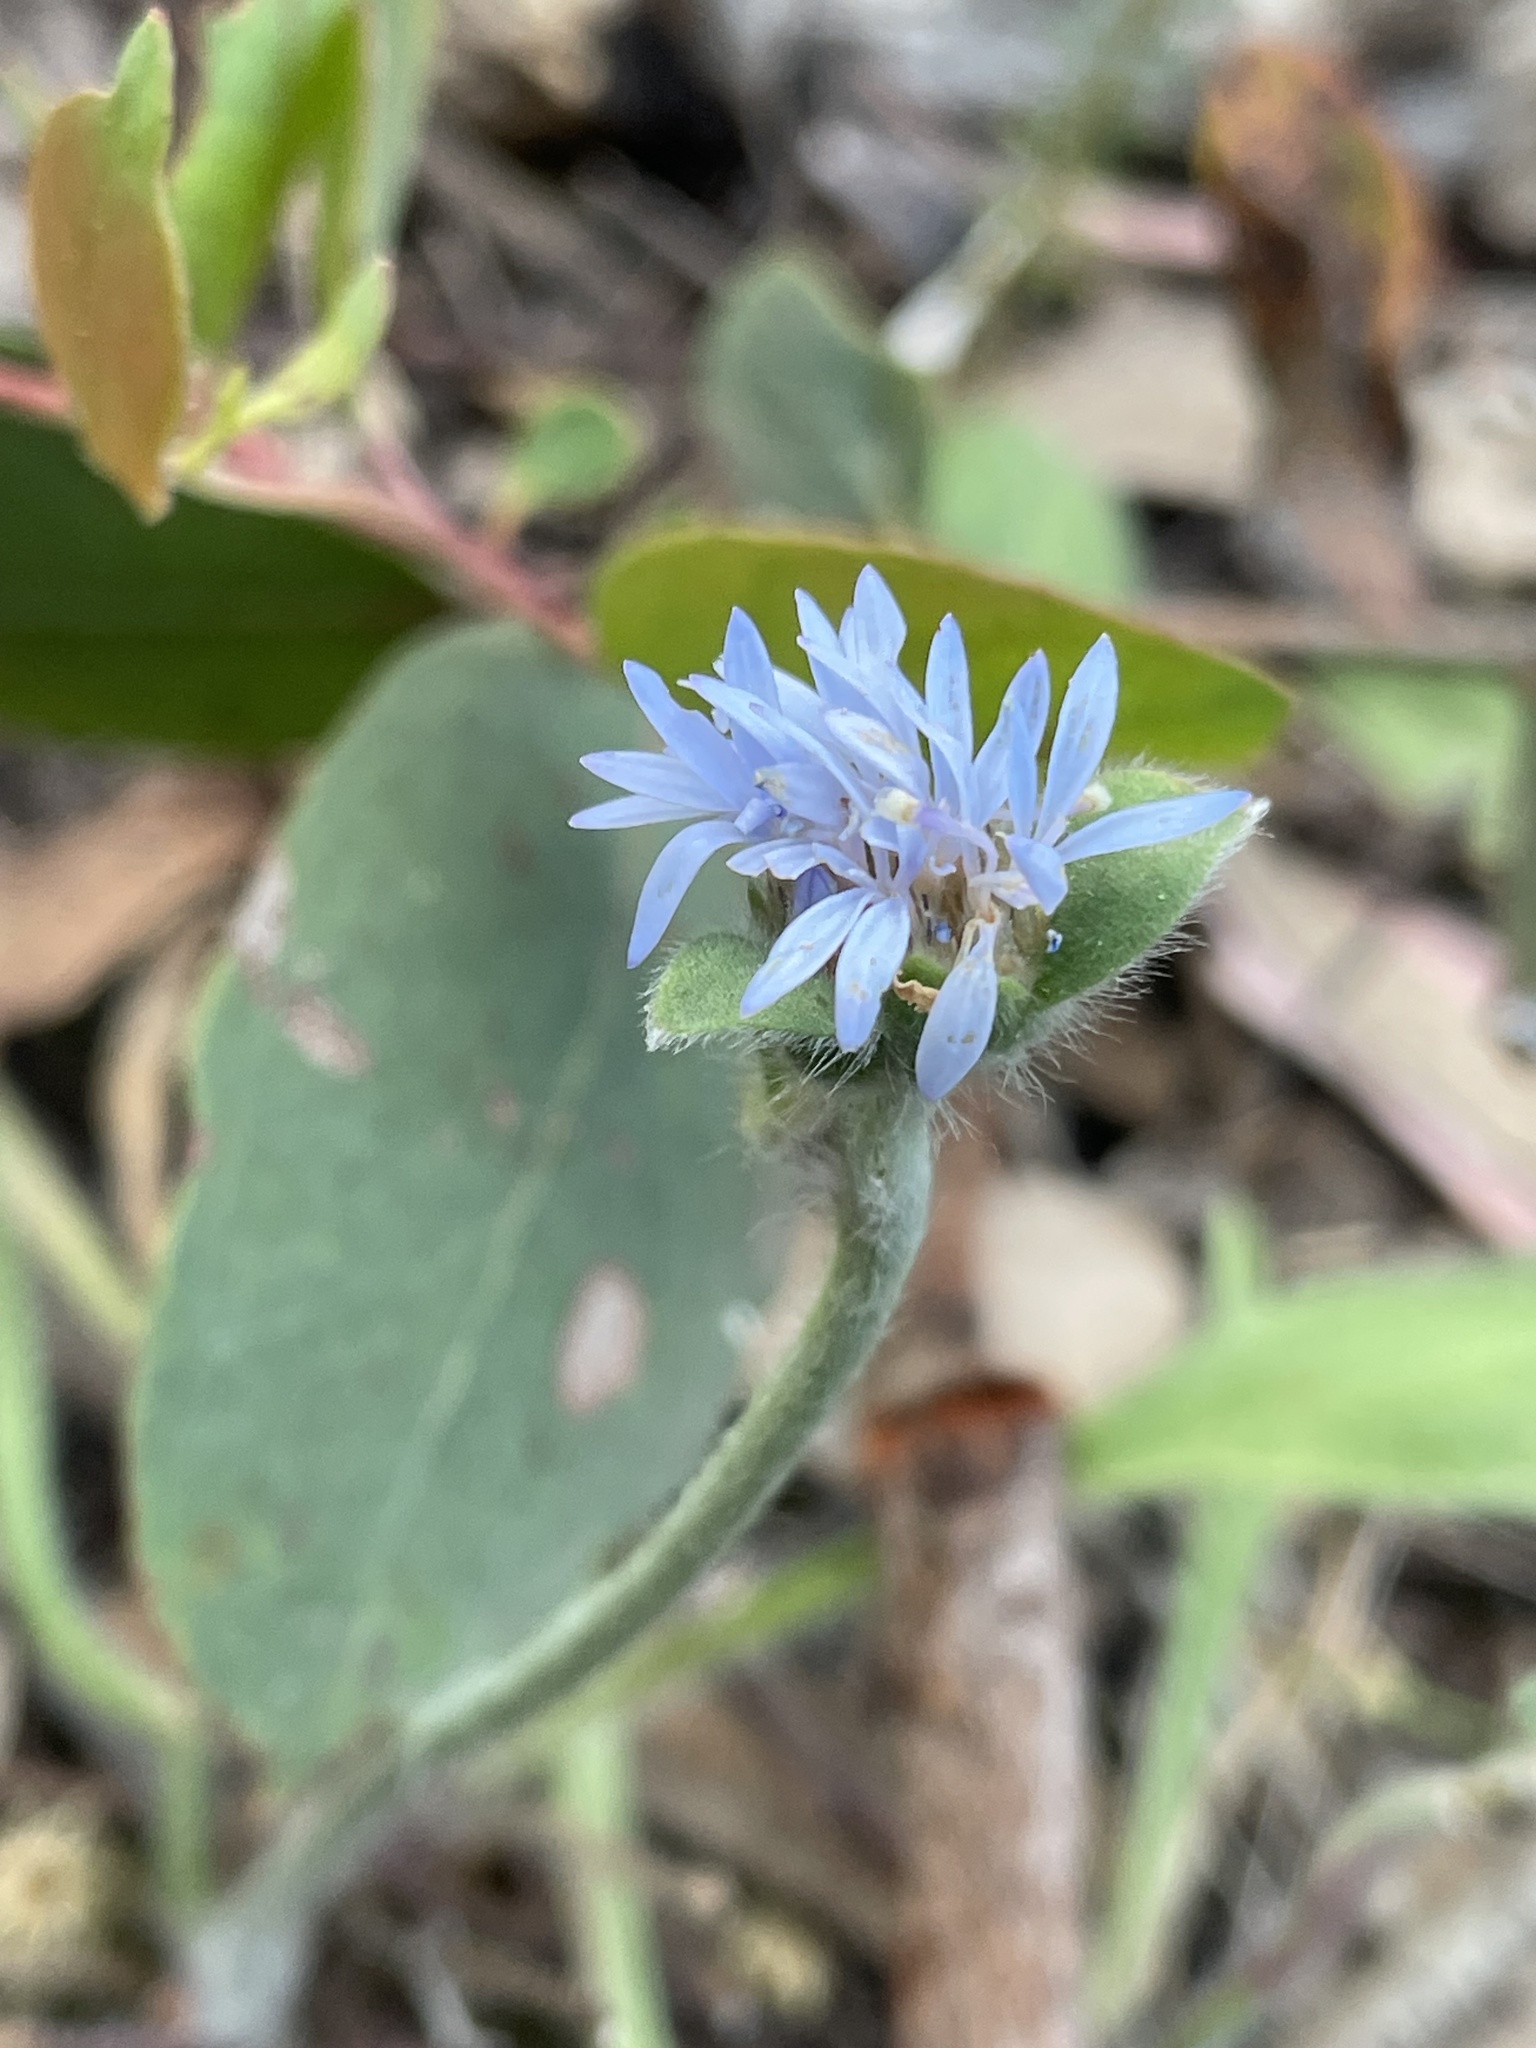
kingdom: Plantae
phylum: Tracheophyta
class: Magnoliopsida
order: Asterales
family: Goodeniaceae
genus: Brunonia
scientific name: Brunonia australis
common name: Blue pincushion
